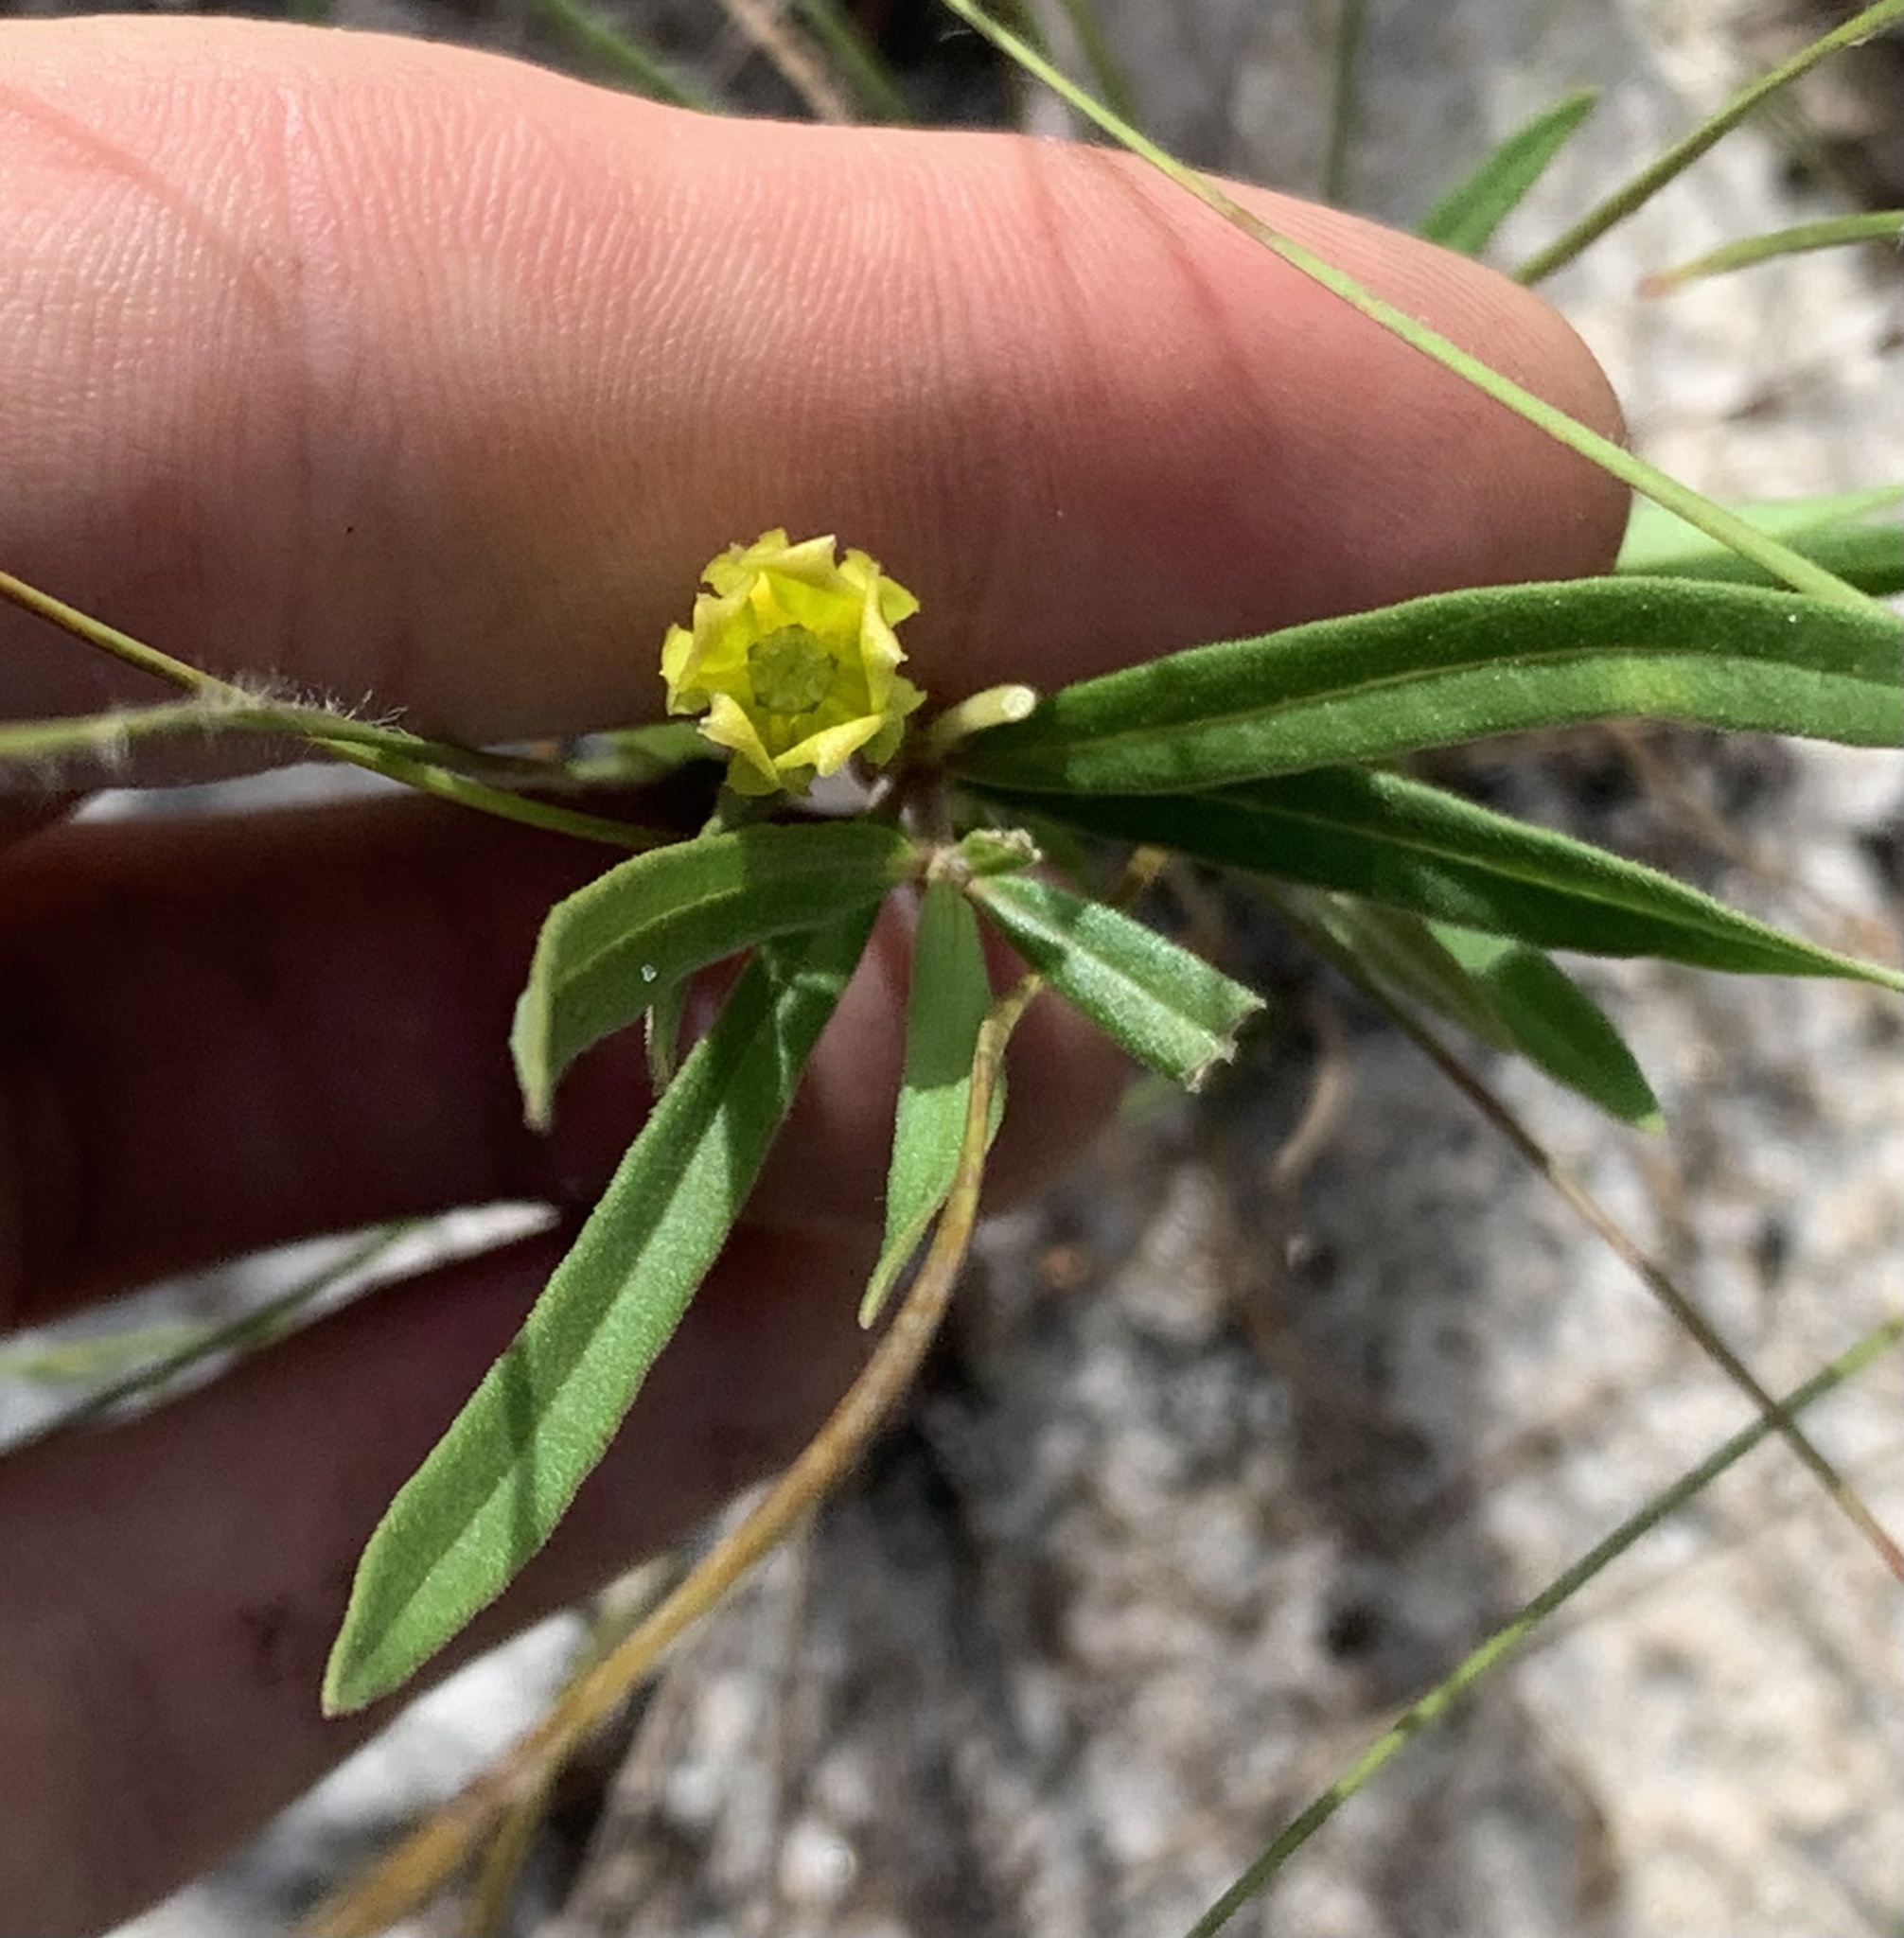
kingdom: Plantae
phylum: Tracheophyta
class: Magnoliopsida
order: Gentianales
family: Apocynaceae
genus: Asclepias
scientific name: Asclepias pedicellata
